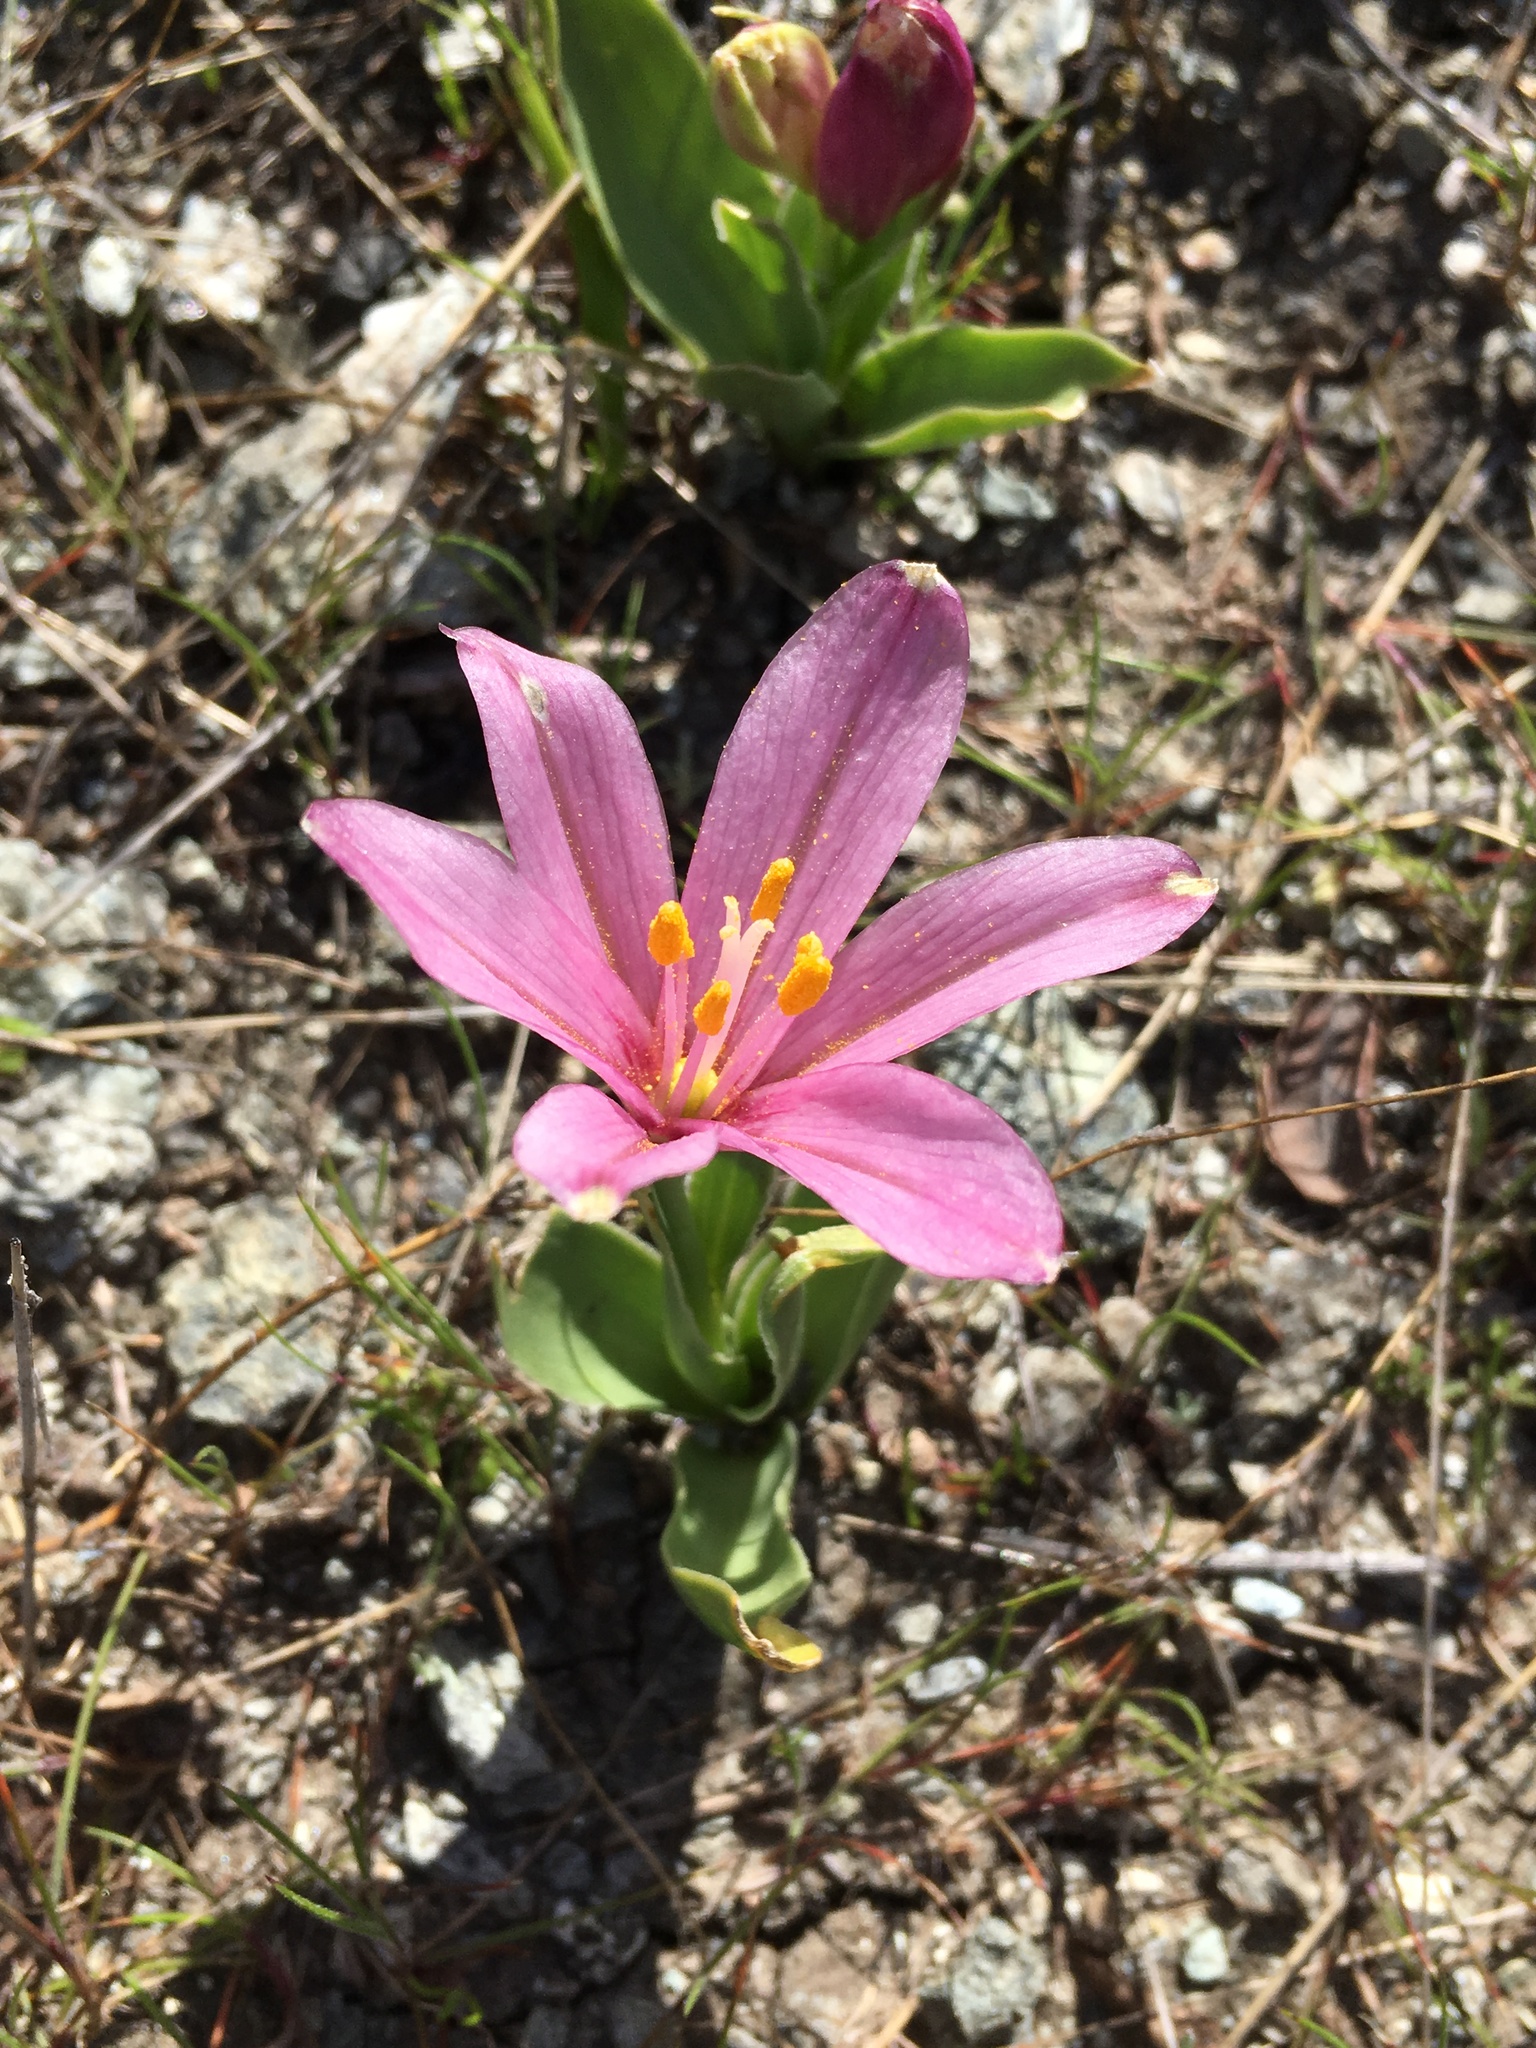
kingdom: Plantae
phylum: Tracheophyta
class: Liliopsida
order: Liliales
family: Liliaceae
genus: Fritillaria
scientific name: Fritillaria pluriflora
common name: Adobe-lily
